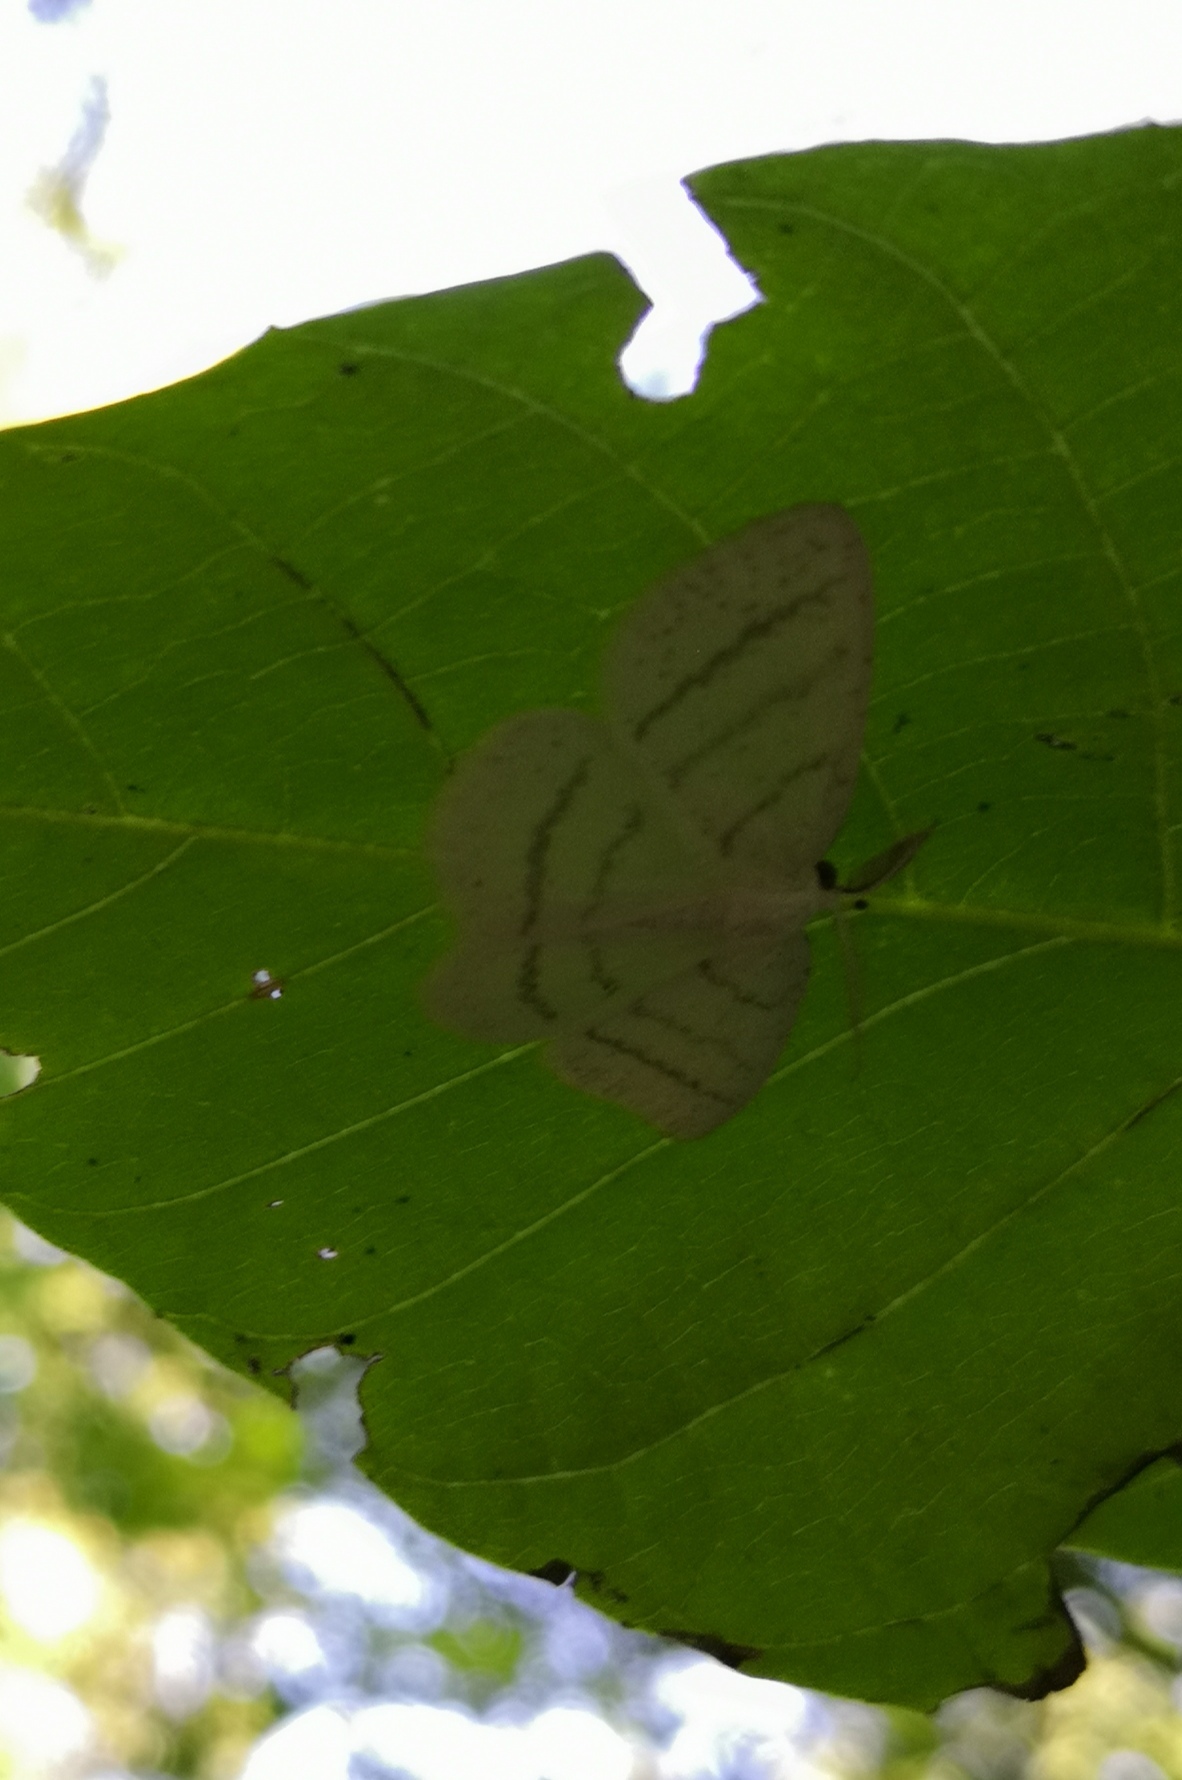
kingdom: Animalia
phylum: Arthropoda
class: Insecta
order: Lepidoptera
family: Geometridae
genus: Cabera
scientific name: Cabera pusaria
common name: Common white wave
